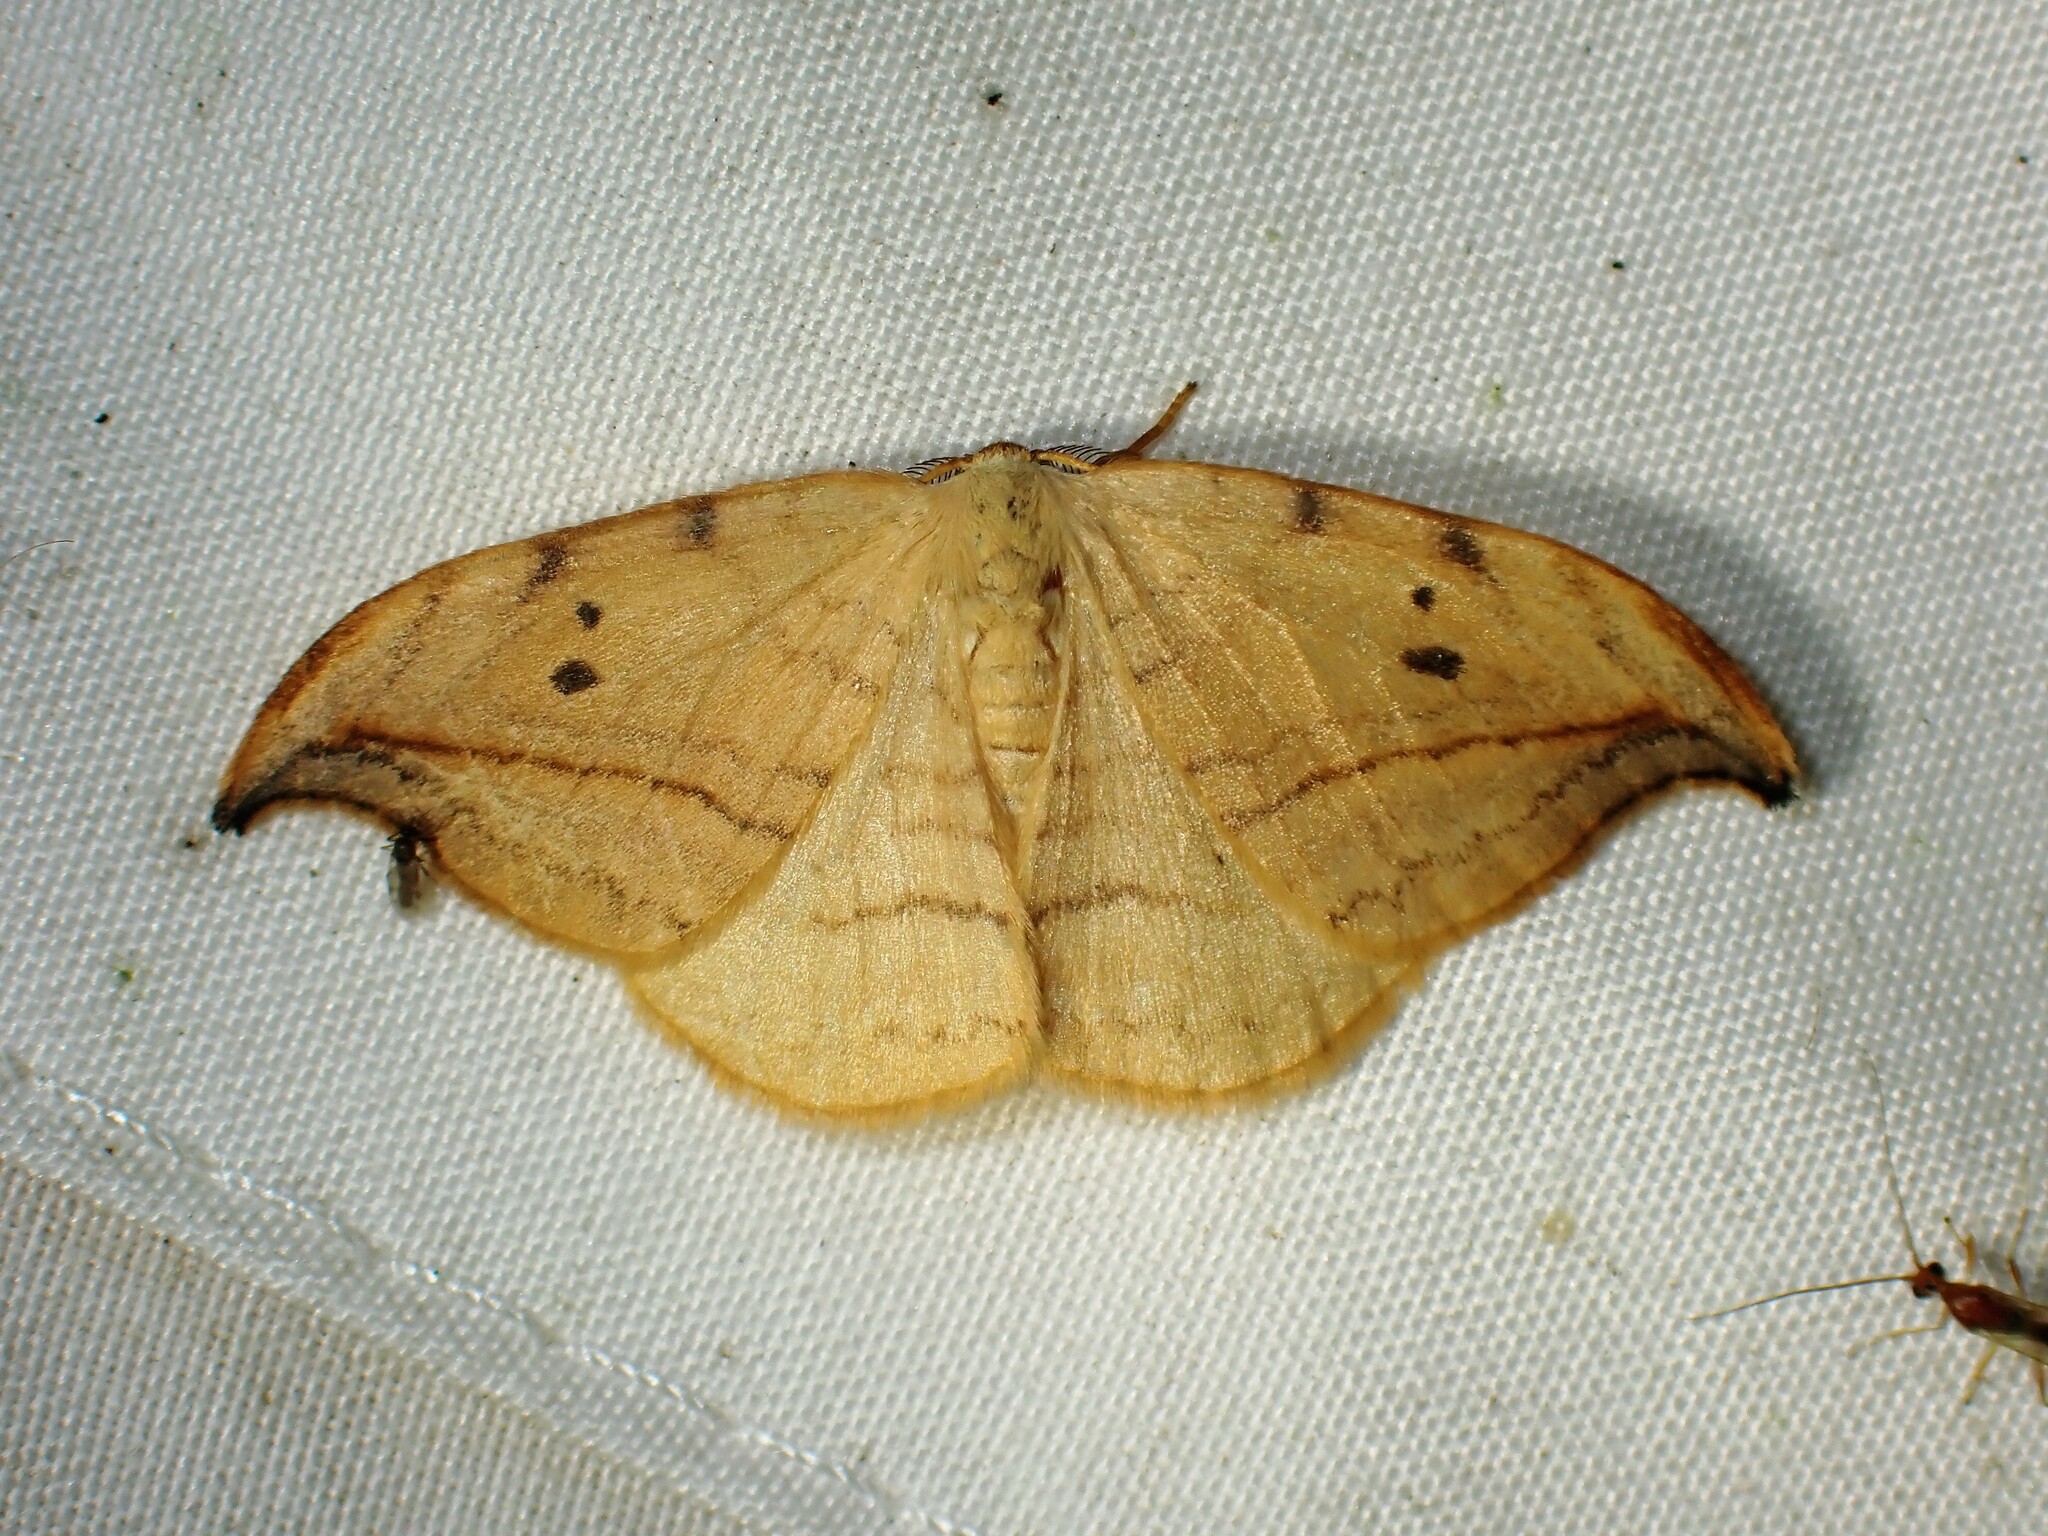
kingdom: Animalia
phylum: Arthropoda
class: Insecta
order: Lepidoptera
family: Drepanidae
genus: Drepana
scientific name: Drepana arcuata
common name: Arched hooktip moth
